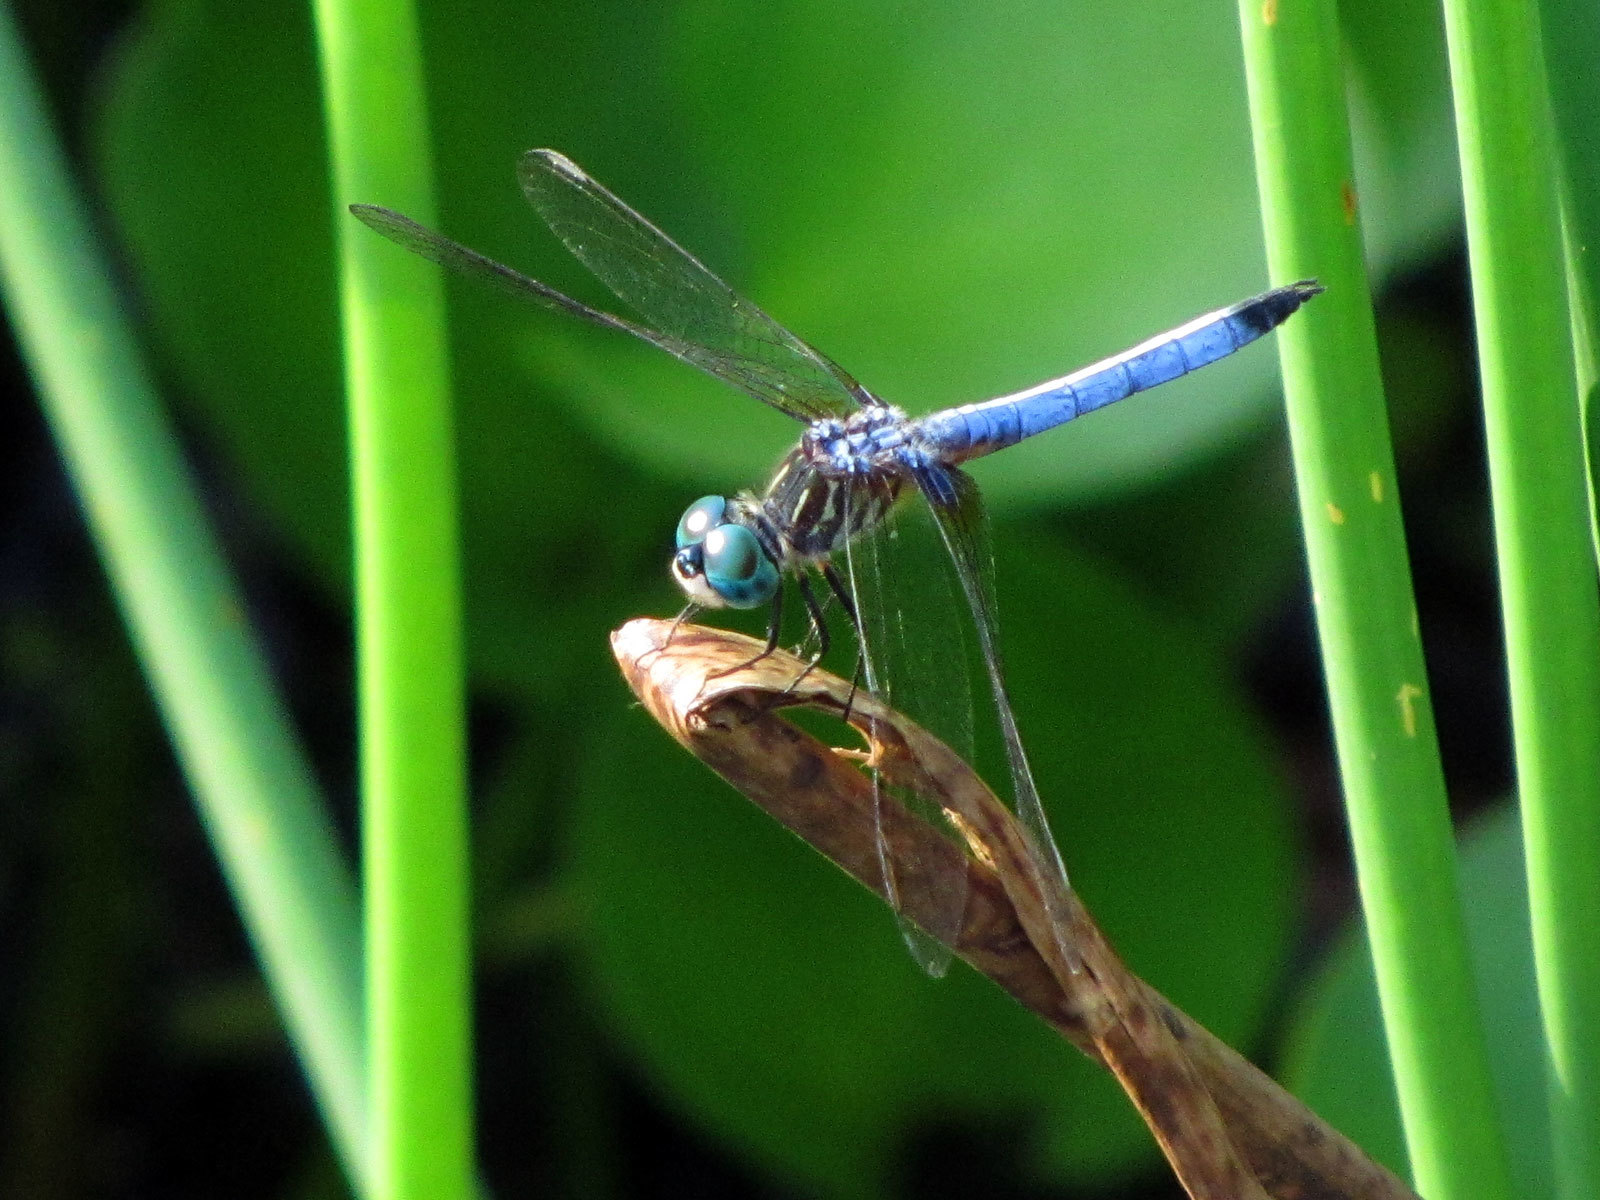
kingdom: Animalia
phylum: Arthropoda
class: Insecta
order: Odonata
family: Libellulidae
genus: Pachydiplax
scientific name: Pachydiplax longipennis
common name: Blue dasher
